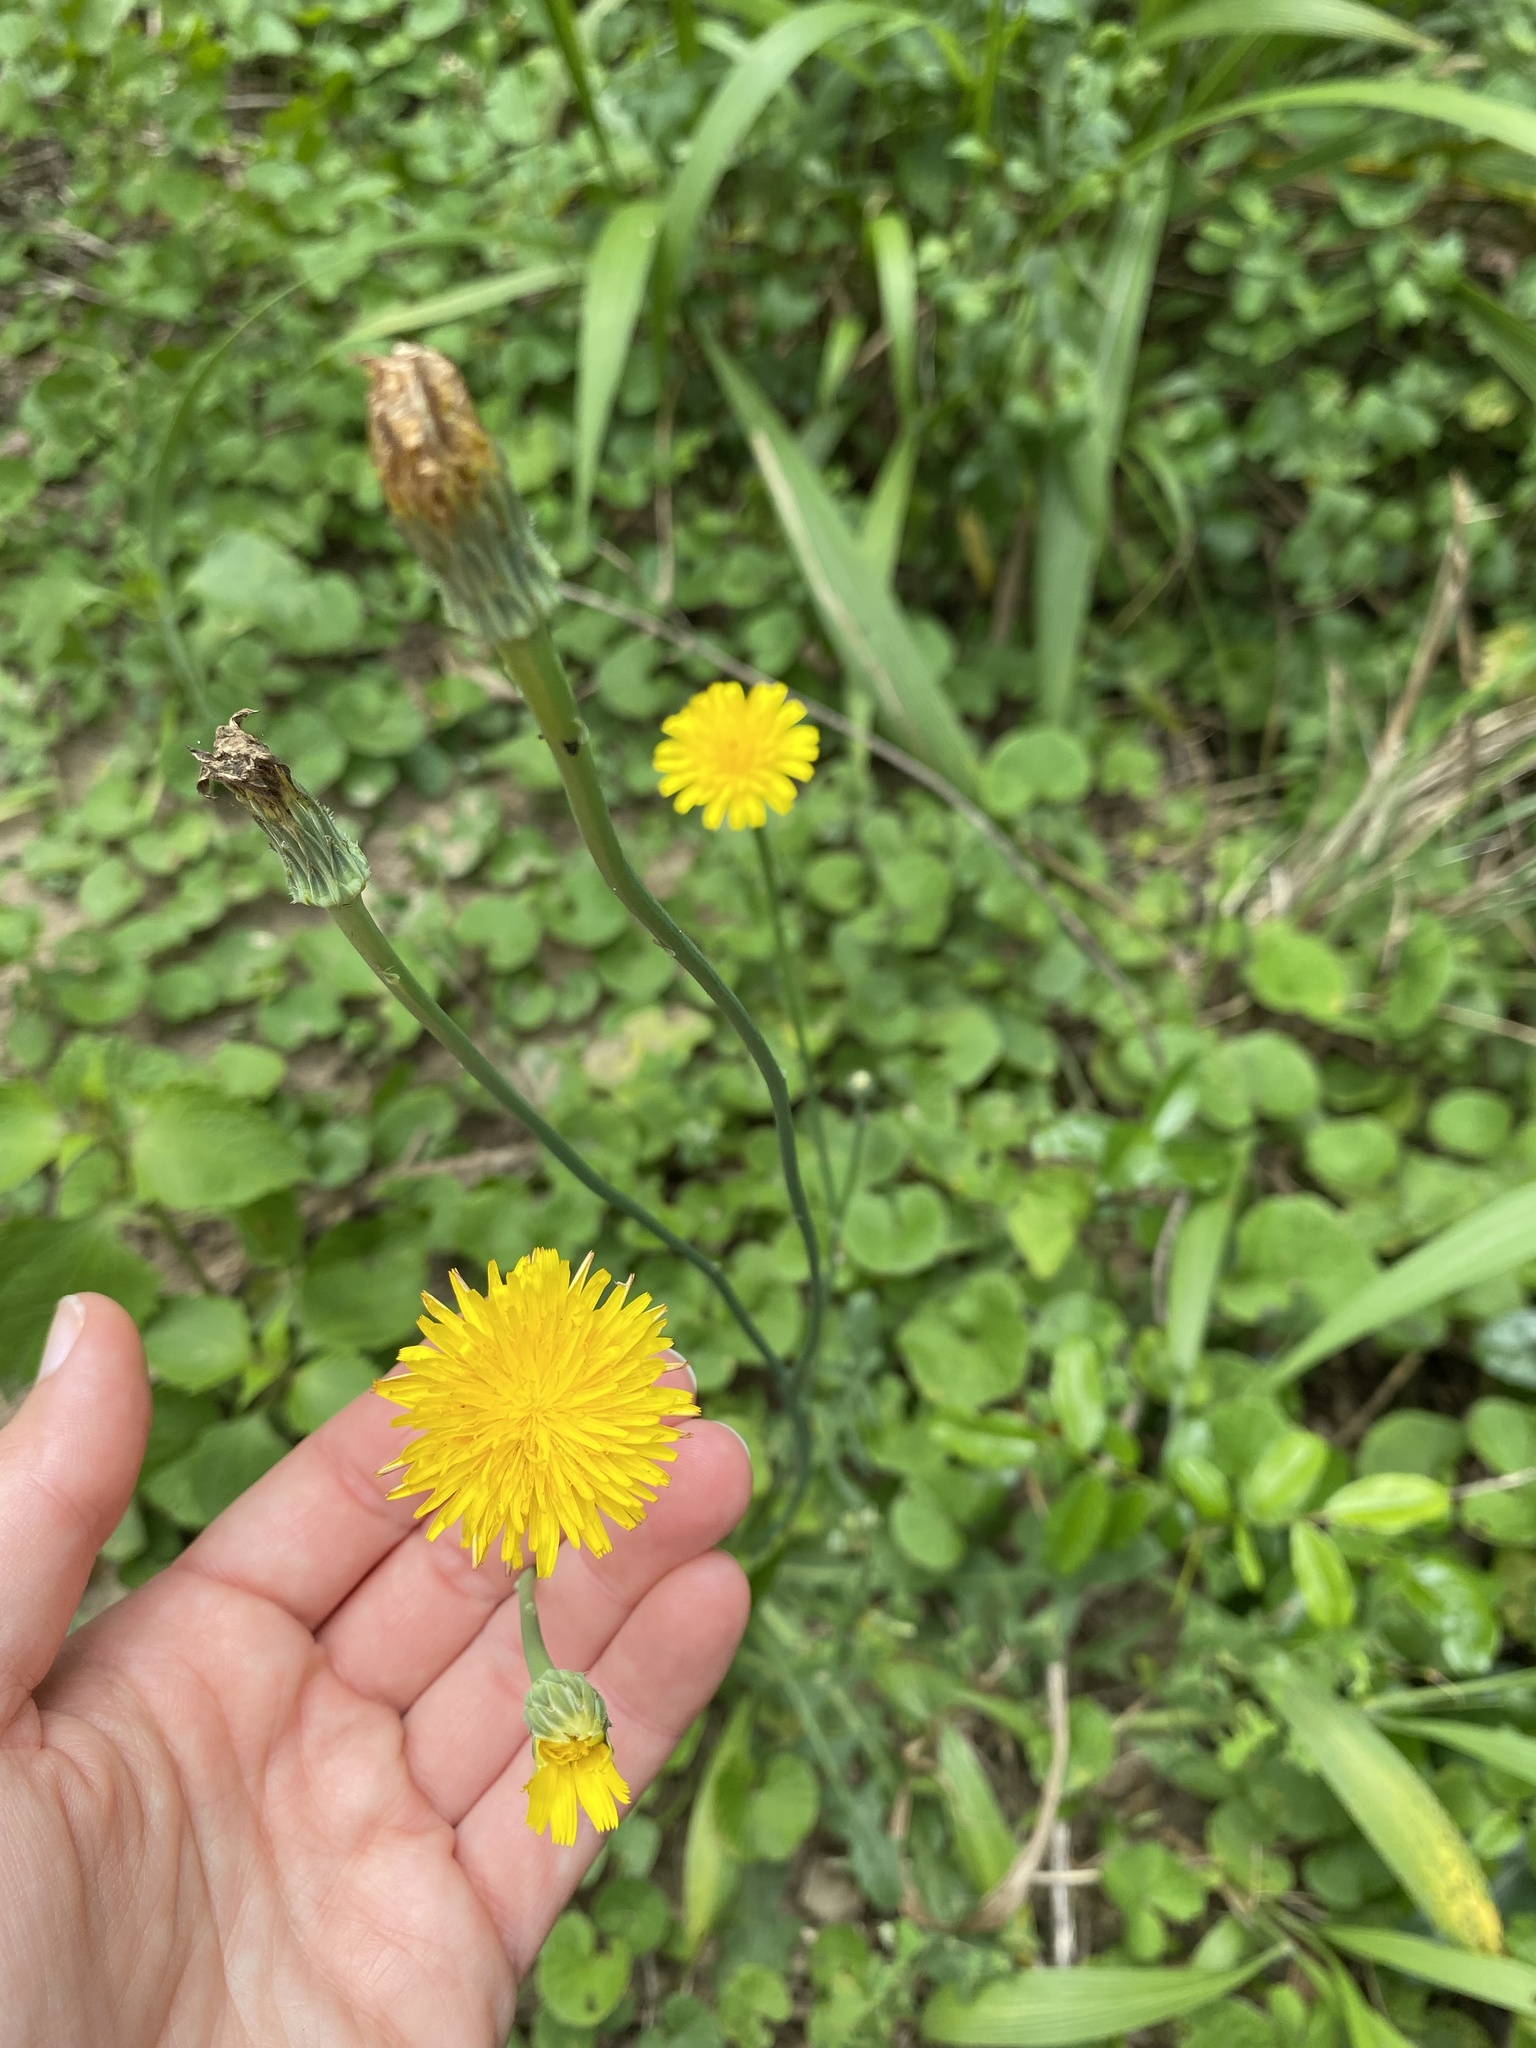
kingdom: Plantae
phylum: Tracheophyta
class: Magnoliopsida
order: Asterales
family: Asteraceae
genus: Hypochaeris
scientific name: Hypochaeris radicata
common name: Flatweed
